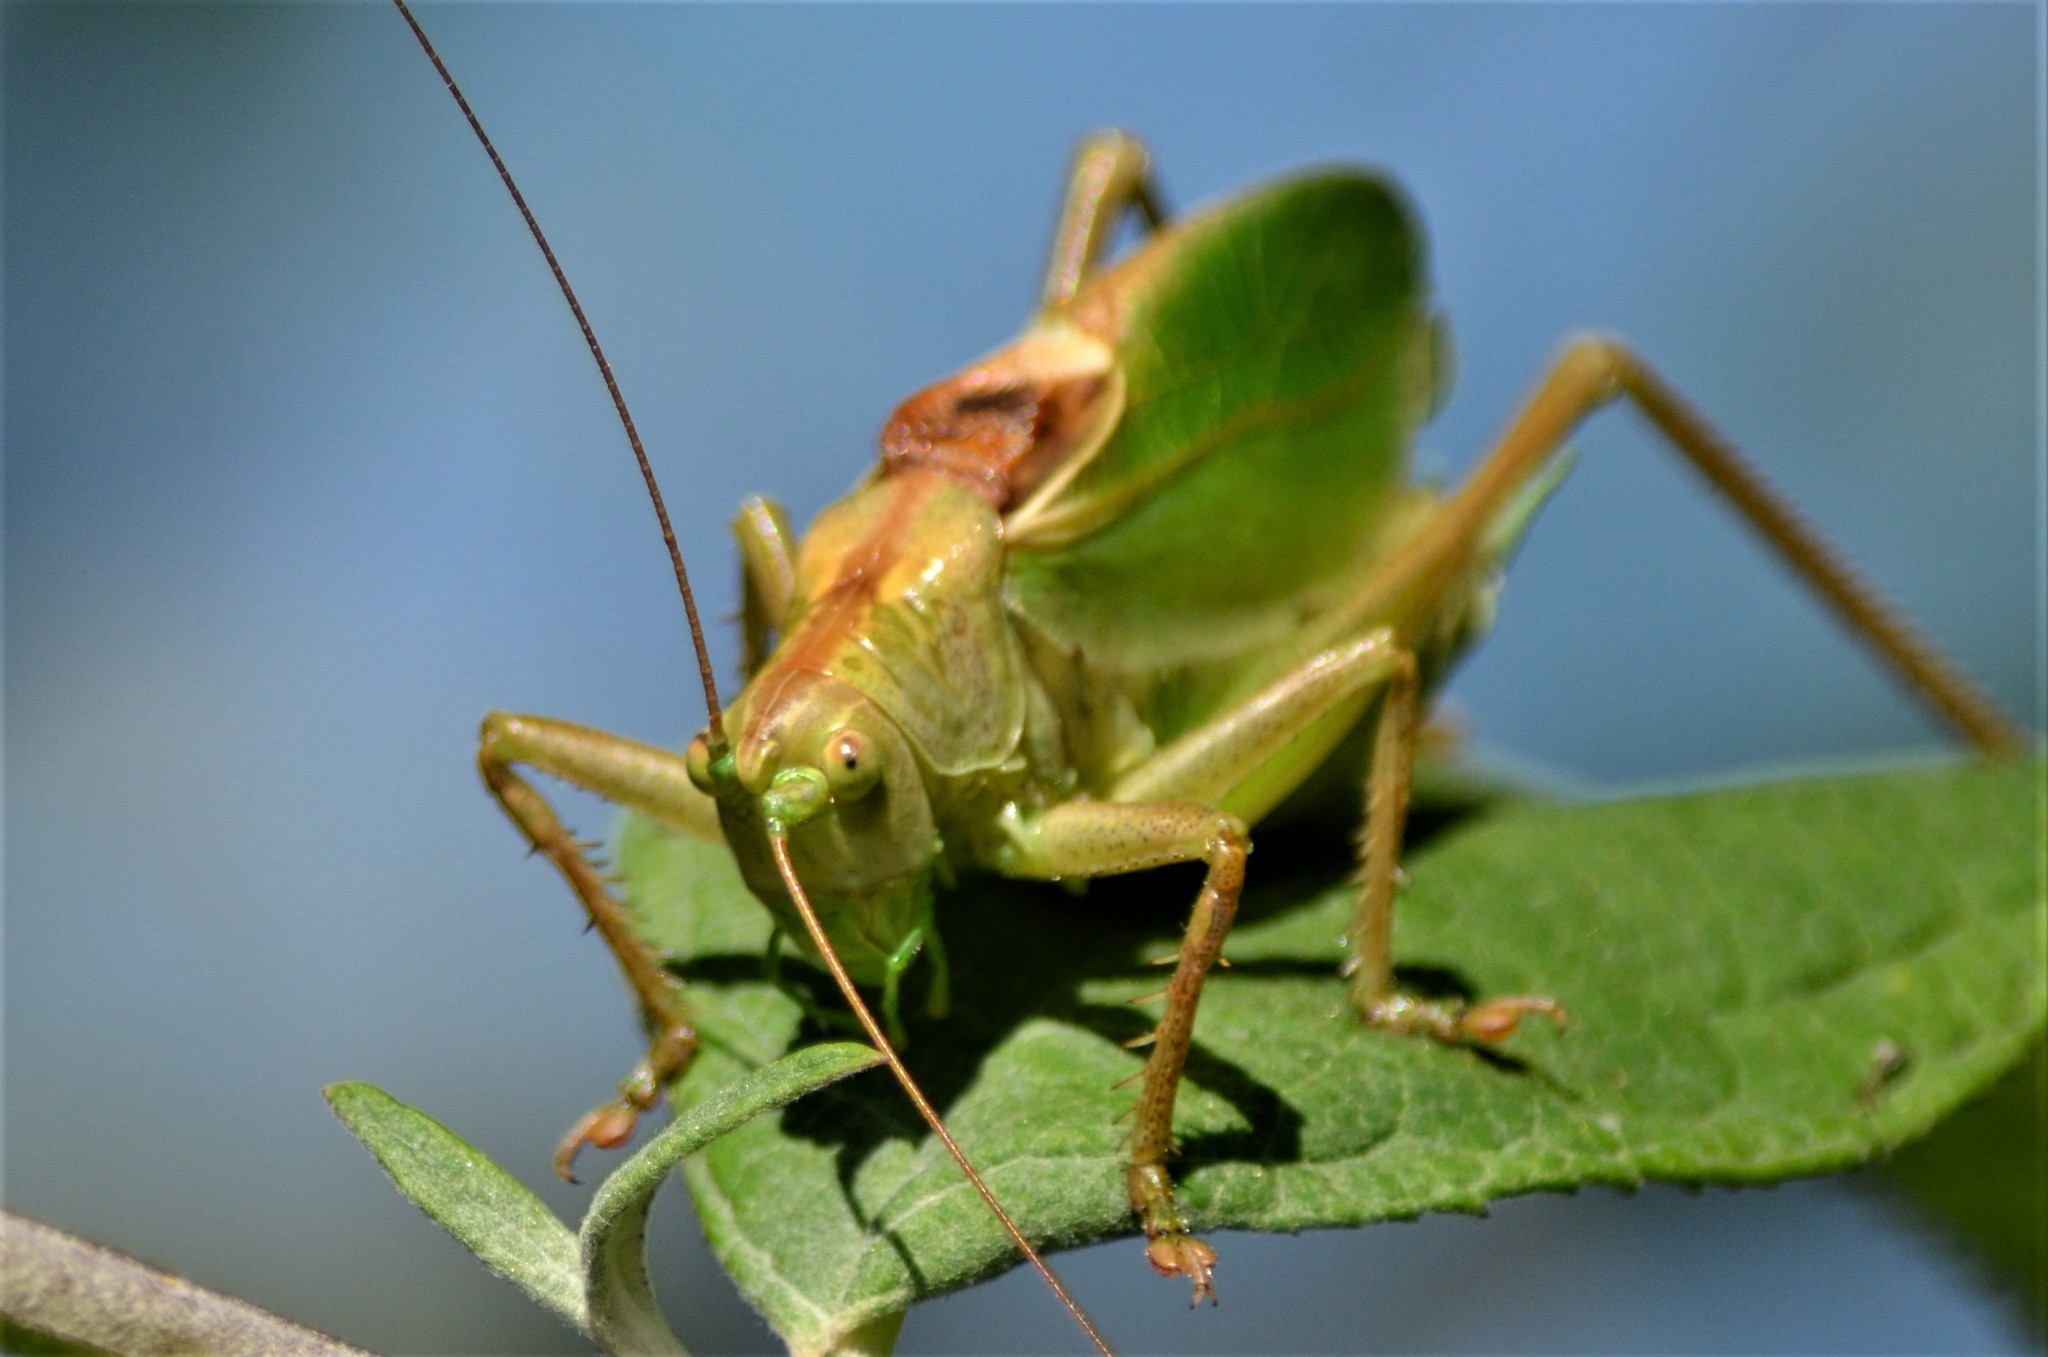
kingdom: Animalia
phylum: Arthropoda
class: Insecta
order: Orthoptera
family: Tettigoniidae
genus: Tettigonia
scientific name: Tettigonia cantans
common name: Upland green bush-cricket
